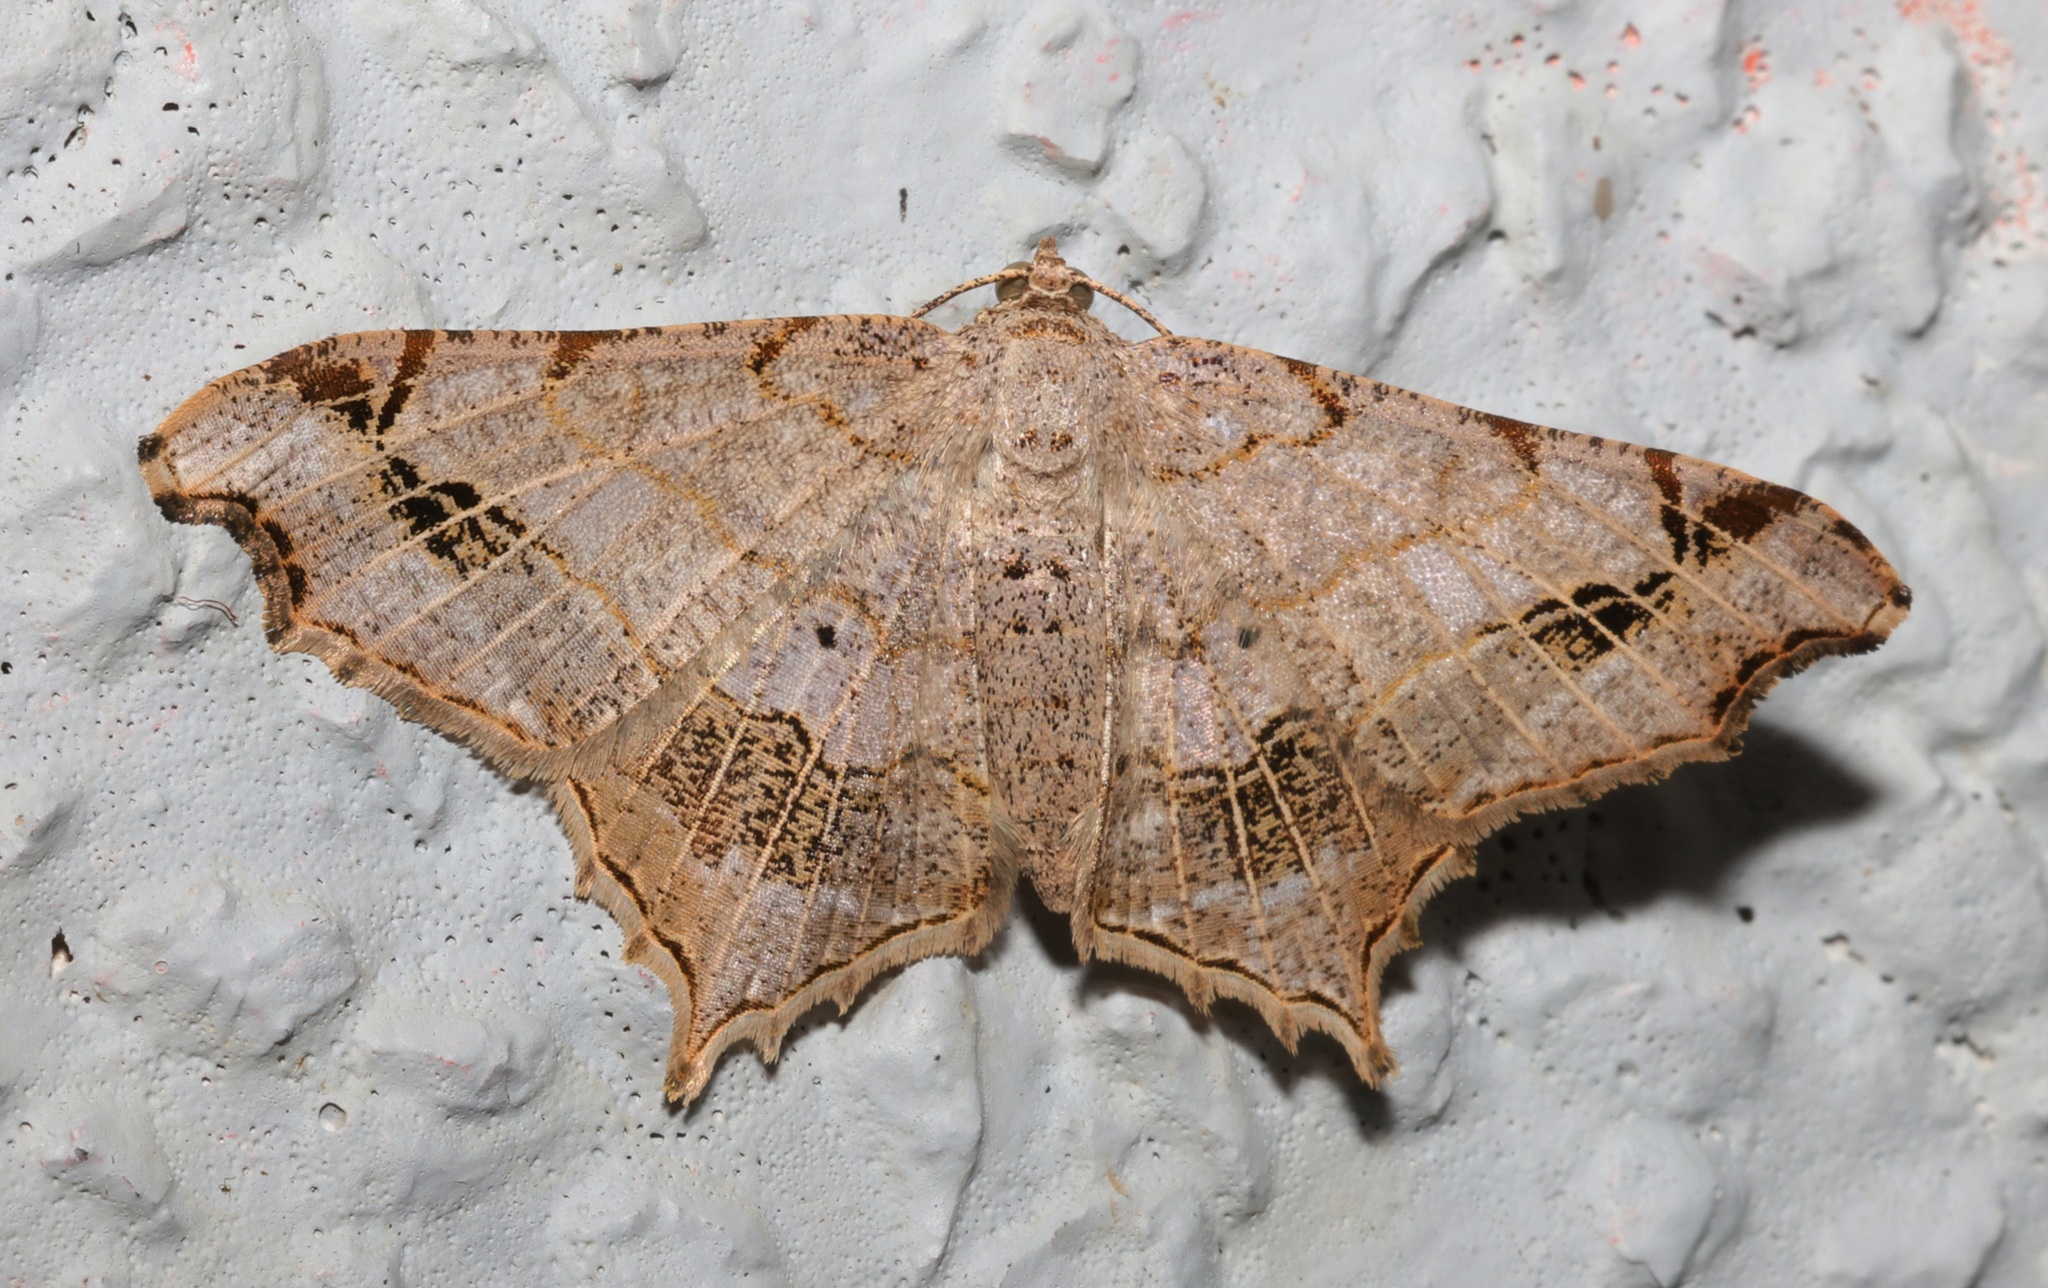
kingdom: Animalia
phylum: Arthropoda
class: Insecta
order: Lepidoptera
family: Geometridae
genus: Chiasmia
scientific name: Chiasmia emersaria
